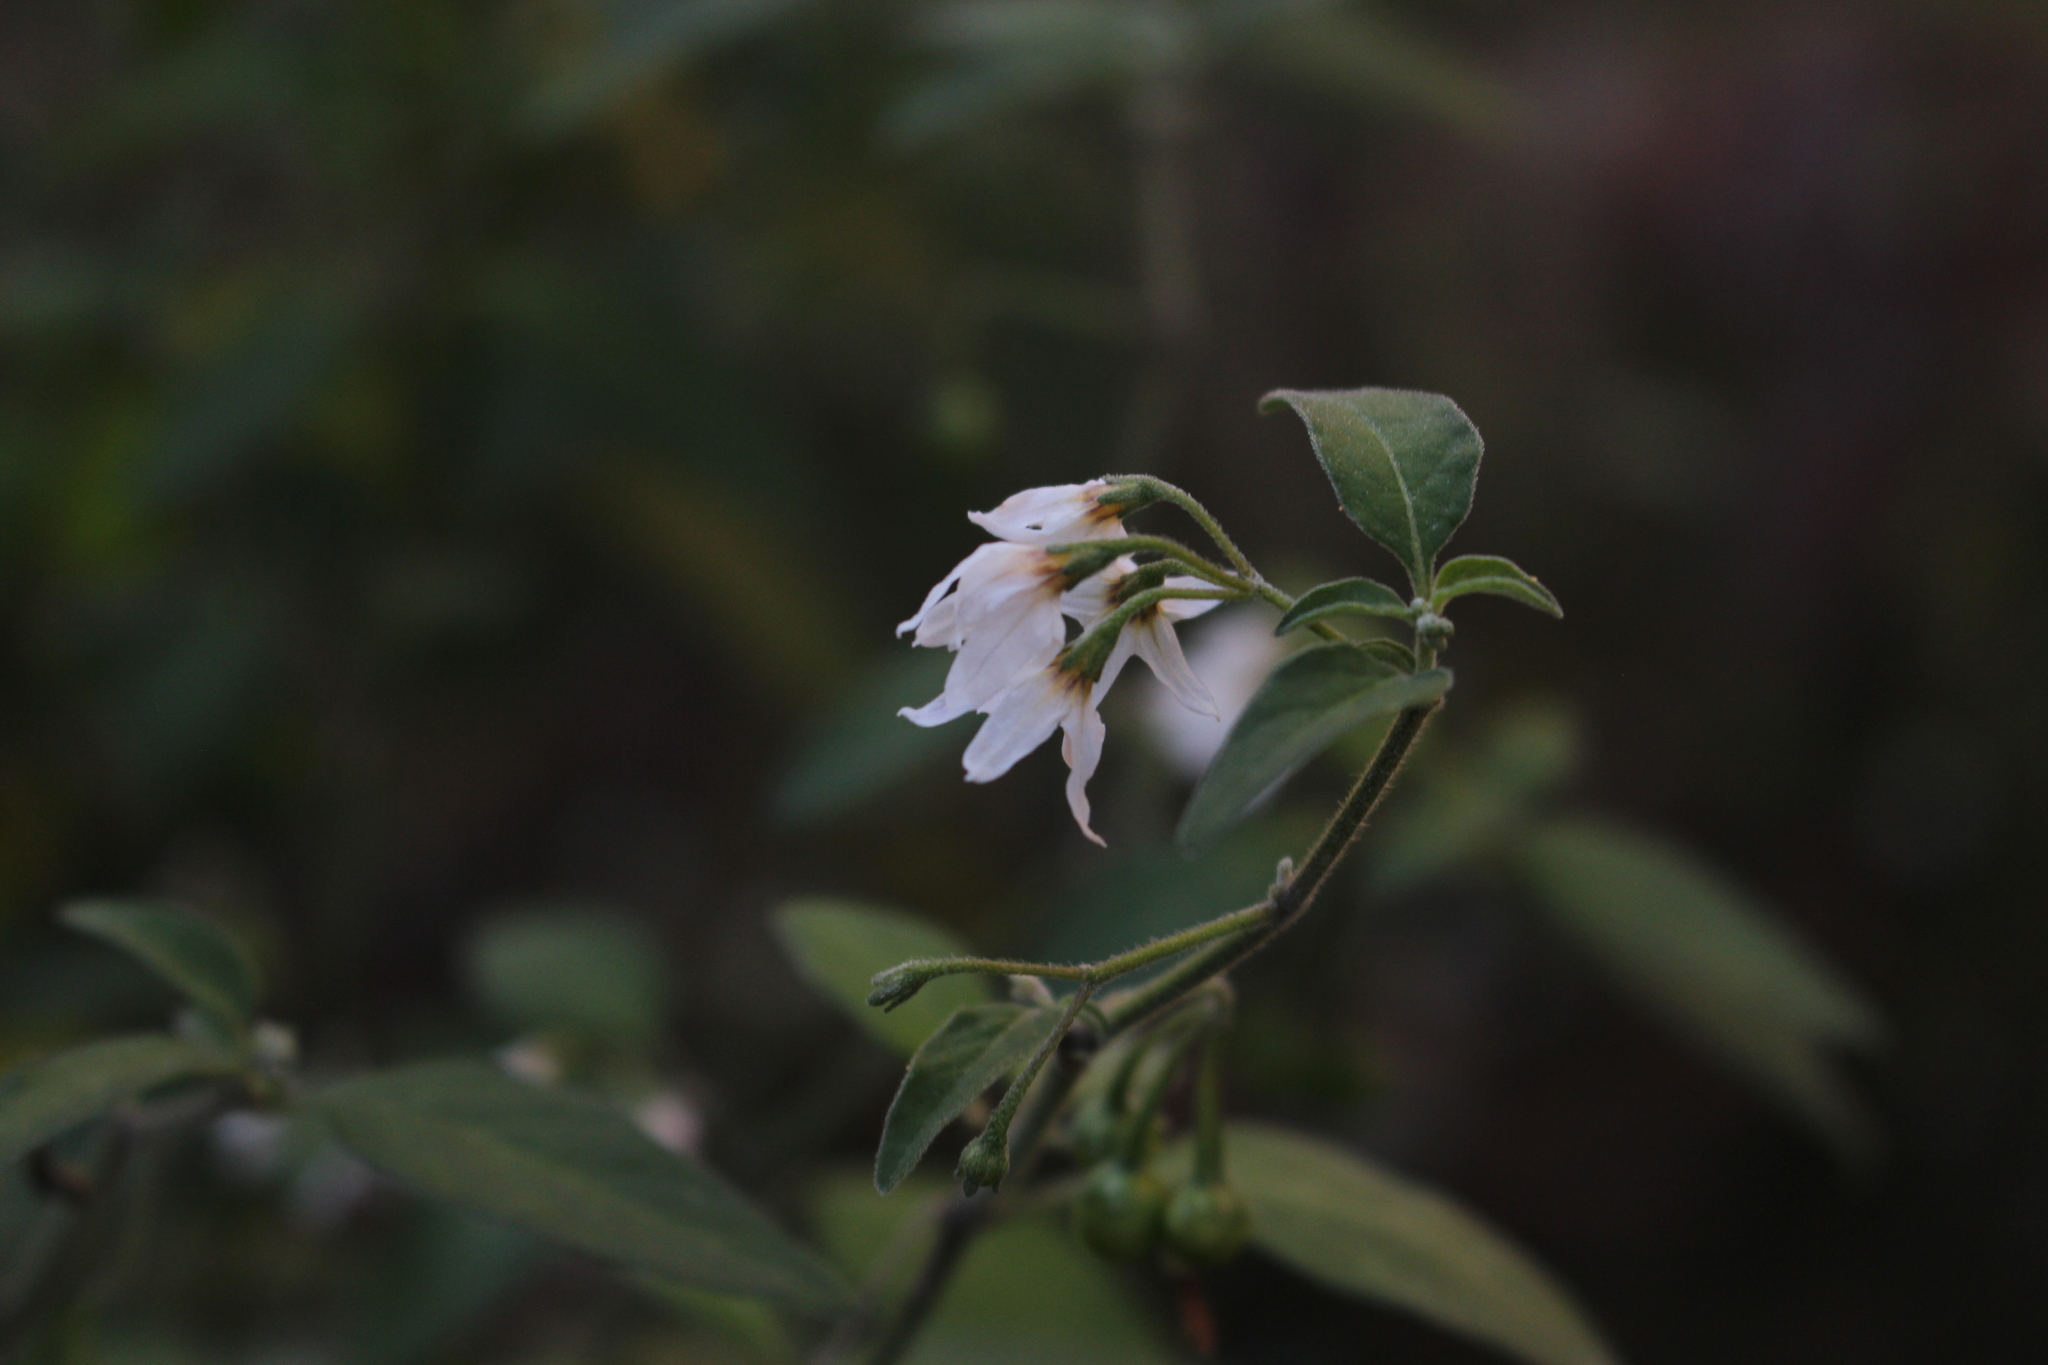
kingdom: Plantae
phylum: Tracheophyta
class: Magnoliopsida
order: Solanales
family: Solanaceae
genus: Solanum
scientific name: Solanum chenopodioides
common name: Tall nightshade
